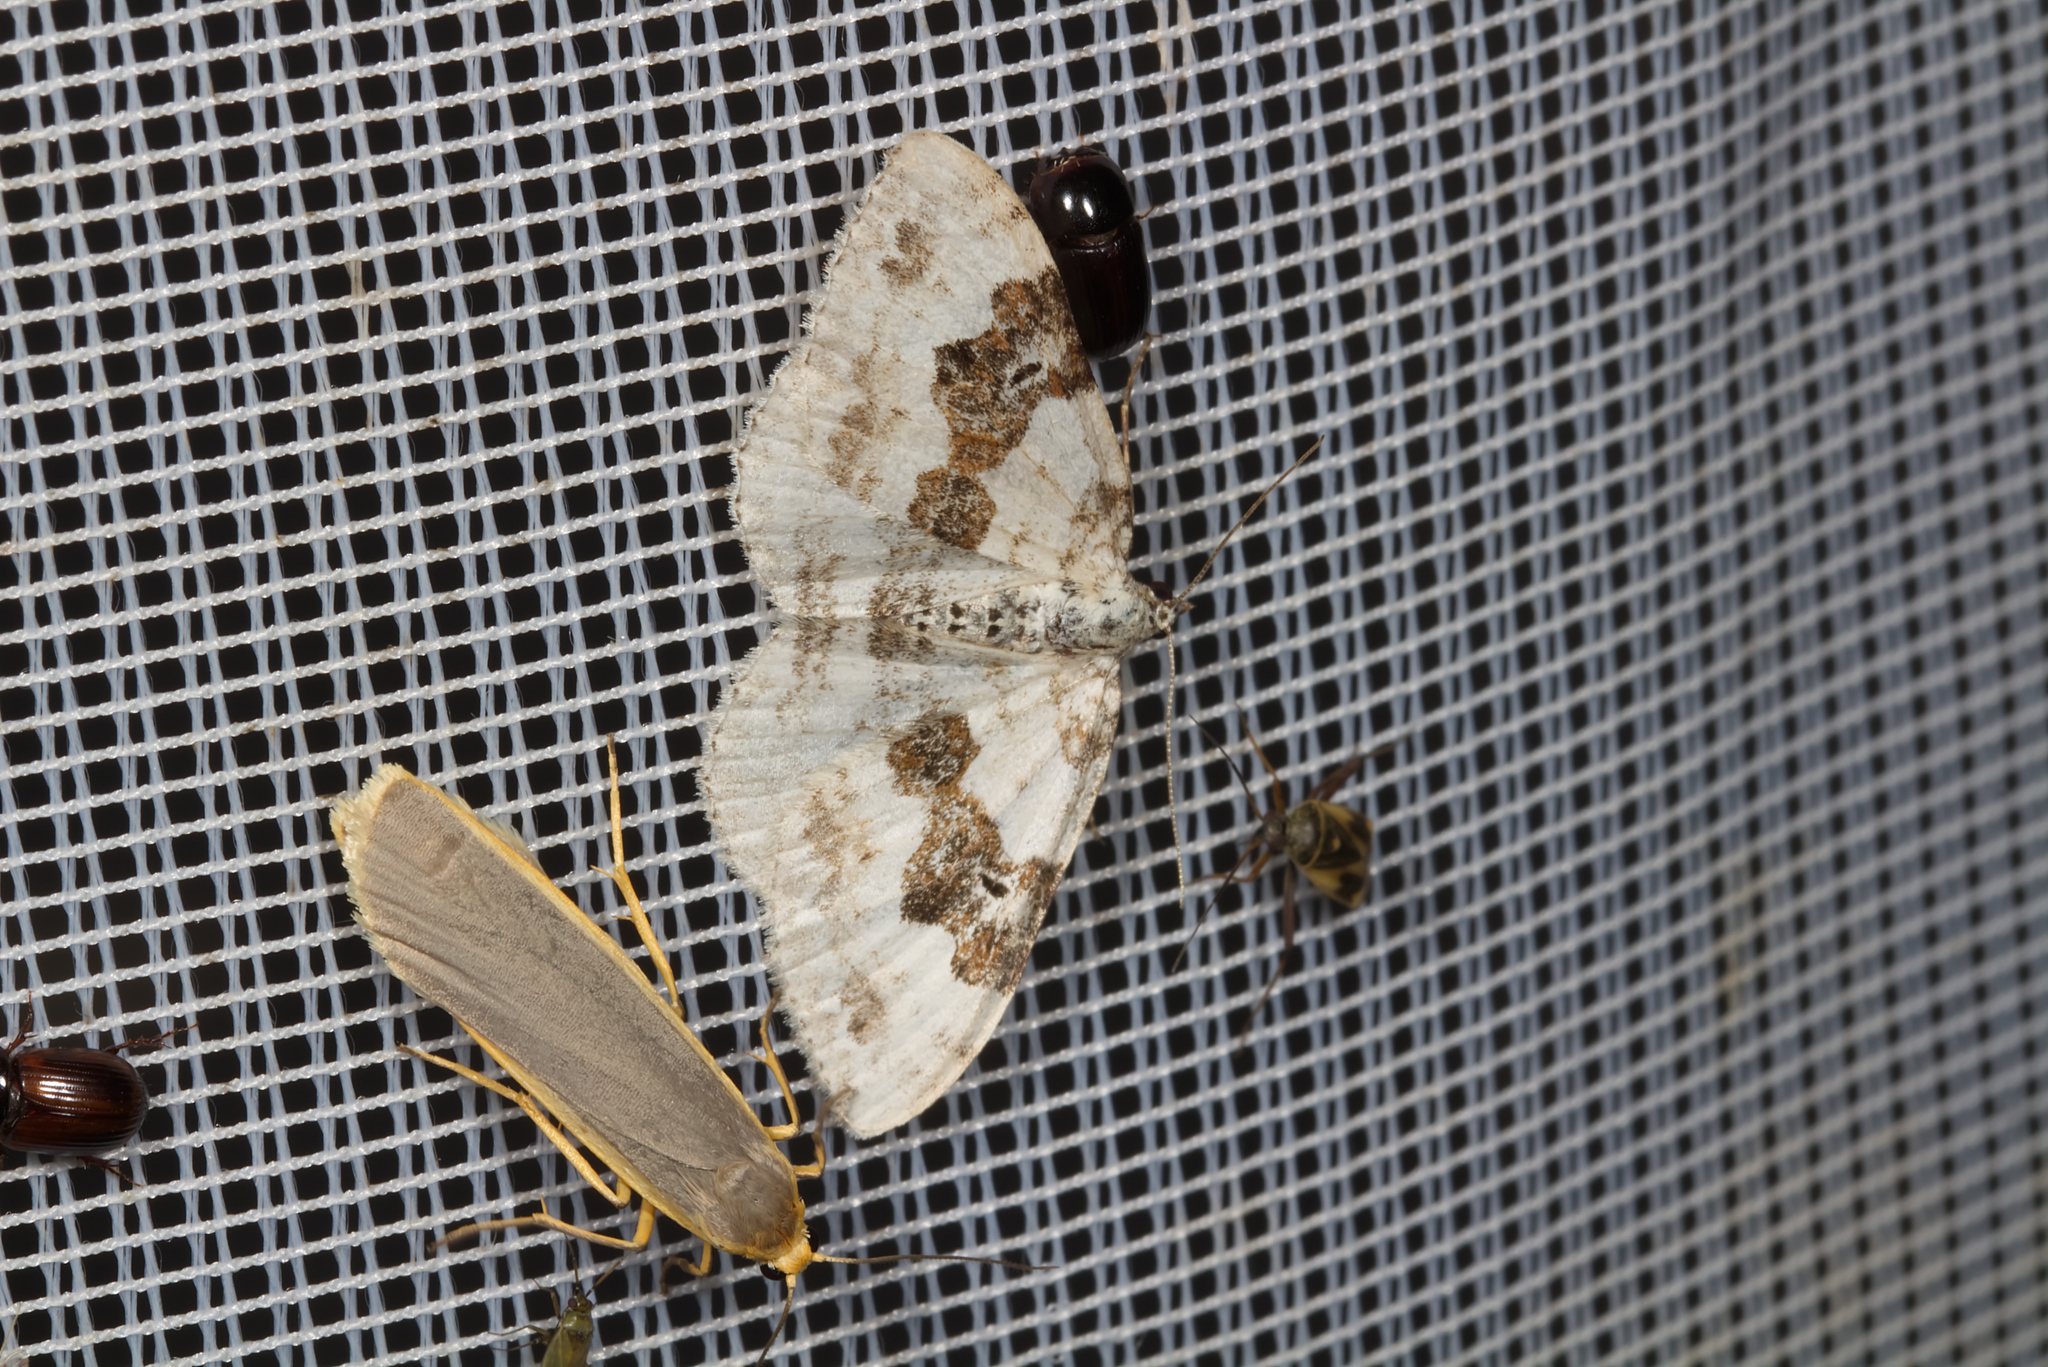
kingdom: Animalia
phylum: Arthropoda
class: Insecta
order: Lepidoptera
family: Geometridae
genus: Xanthorhoe
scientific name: Xanthorhoe montanata
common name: Silver-ground carpet
